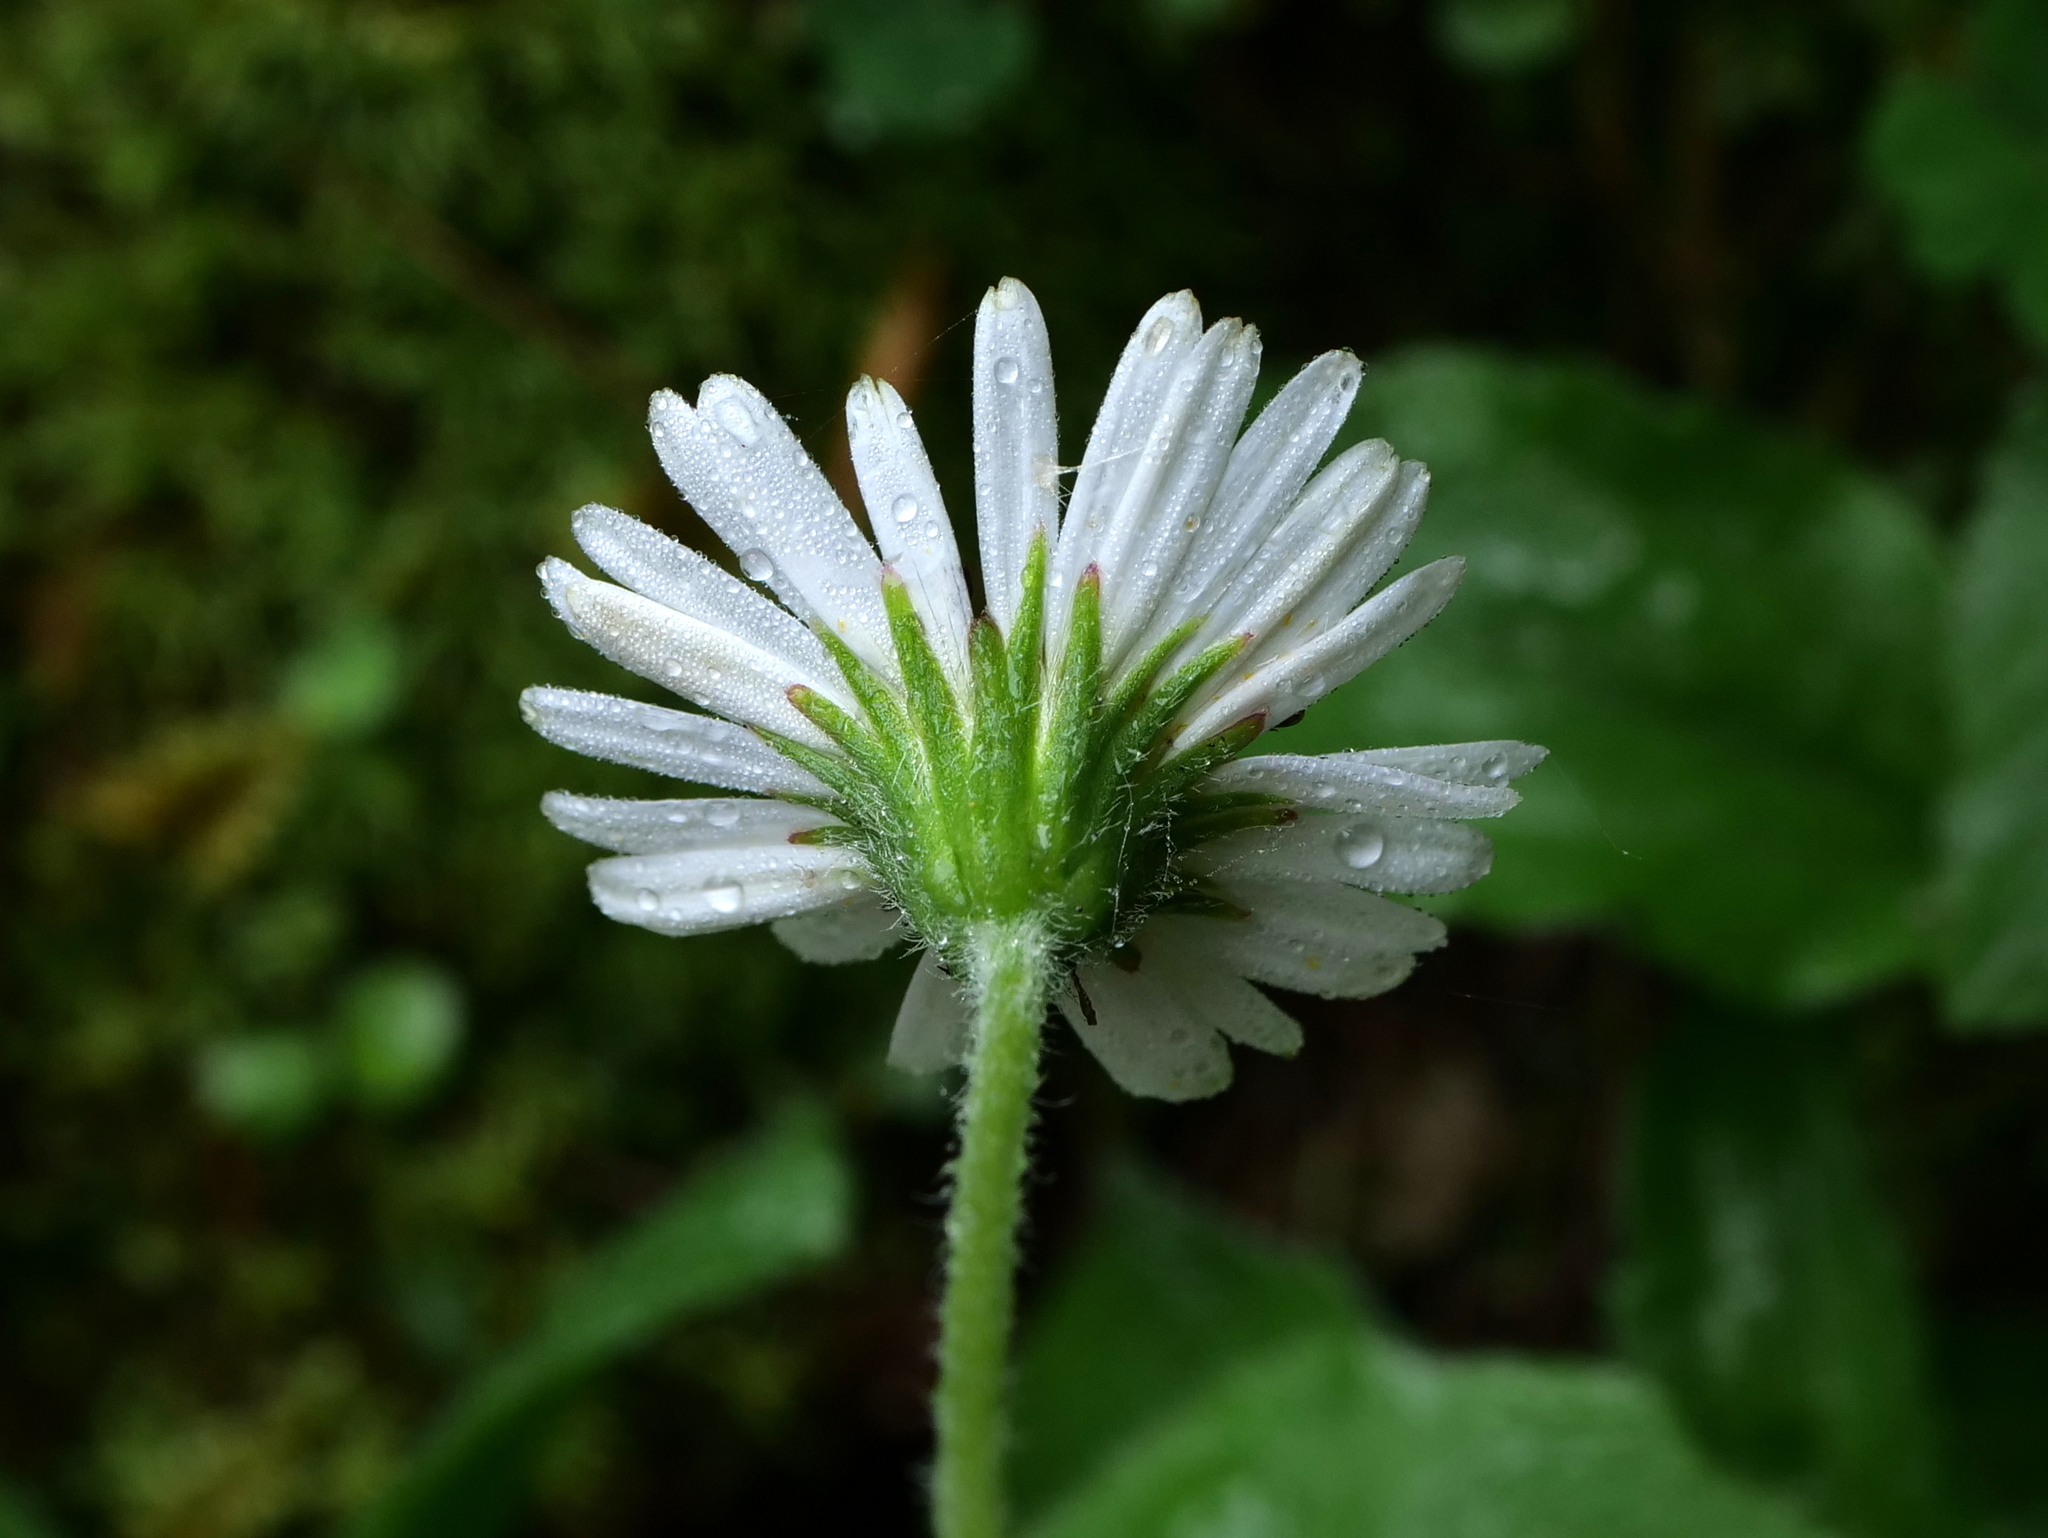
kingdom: Plantae
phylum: Tracheophyta
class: Magnoliopsida
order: Asterales
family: Asteraceae
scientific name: Asteraceae
